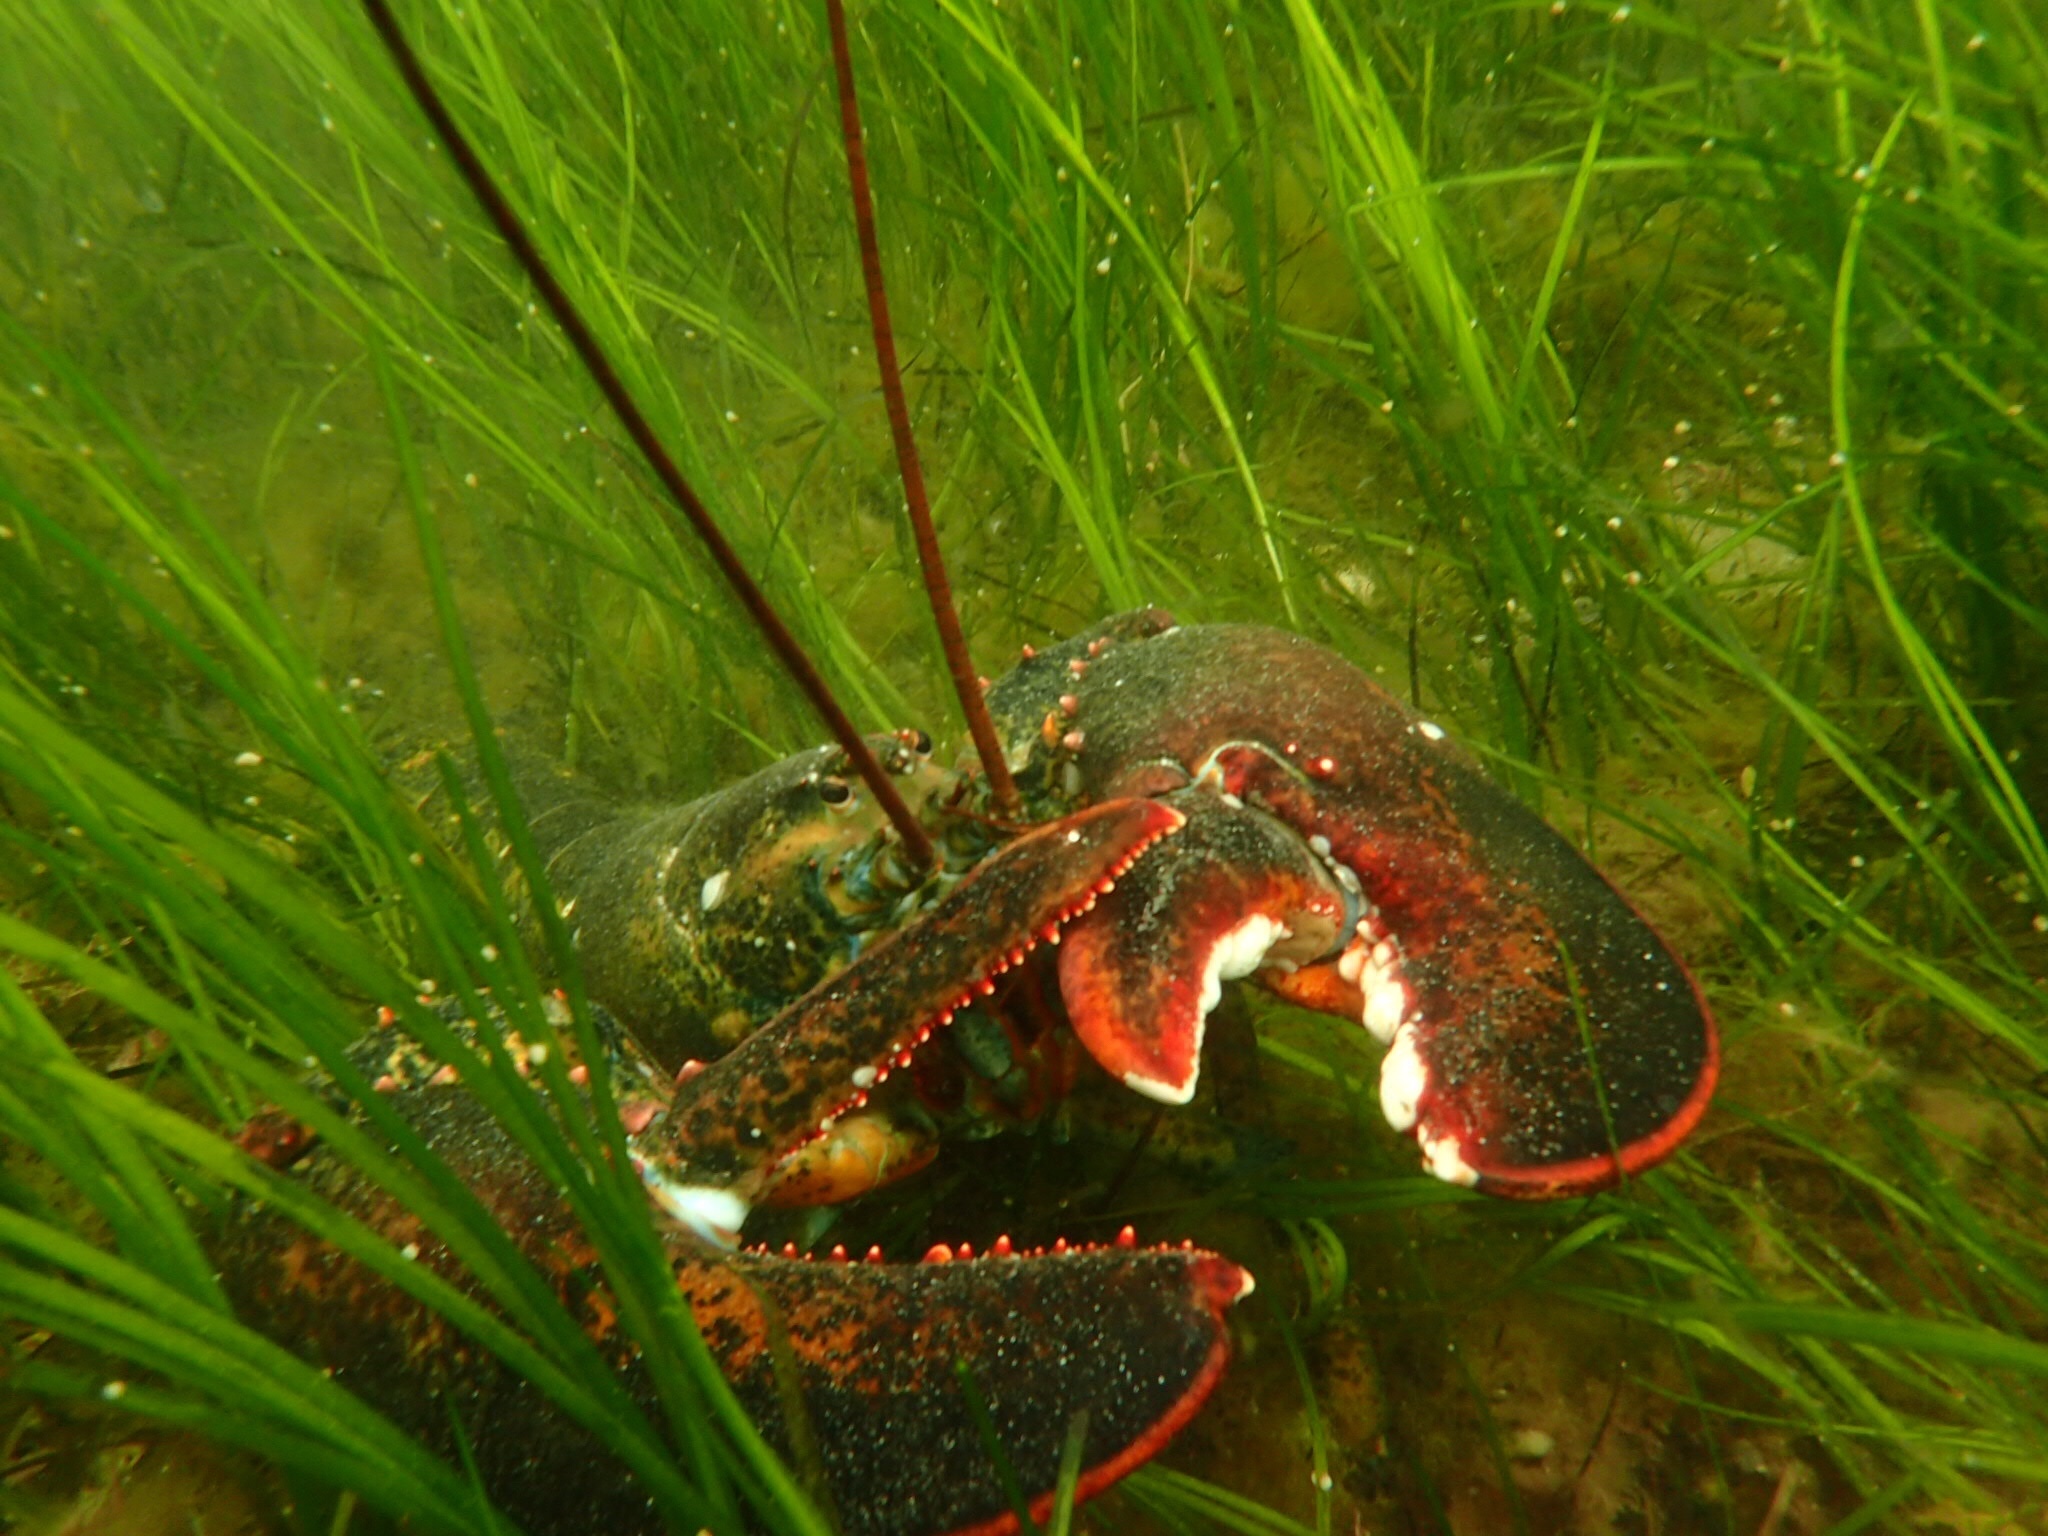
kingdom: Animalia
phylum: Arthropoda
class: Malacostraca
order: Decapoda
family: Nephropidae
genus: Homarus
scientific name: Homarus americanus
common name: American lobster
